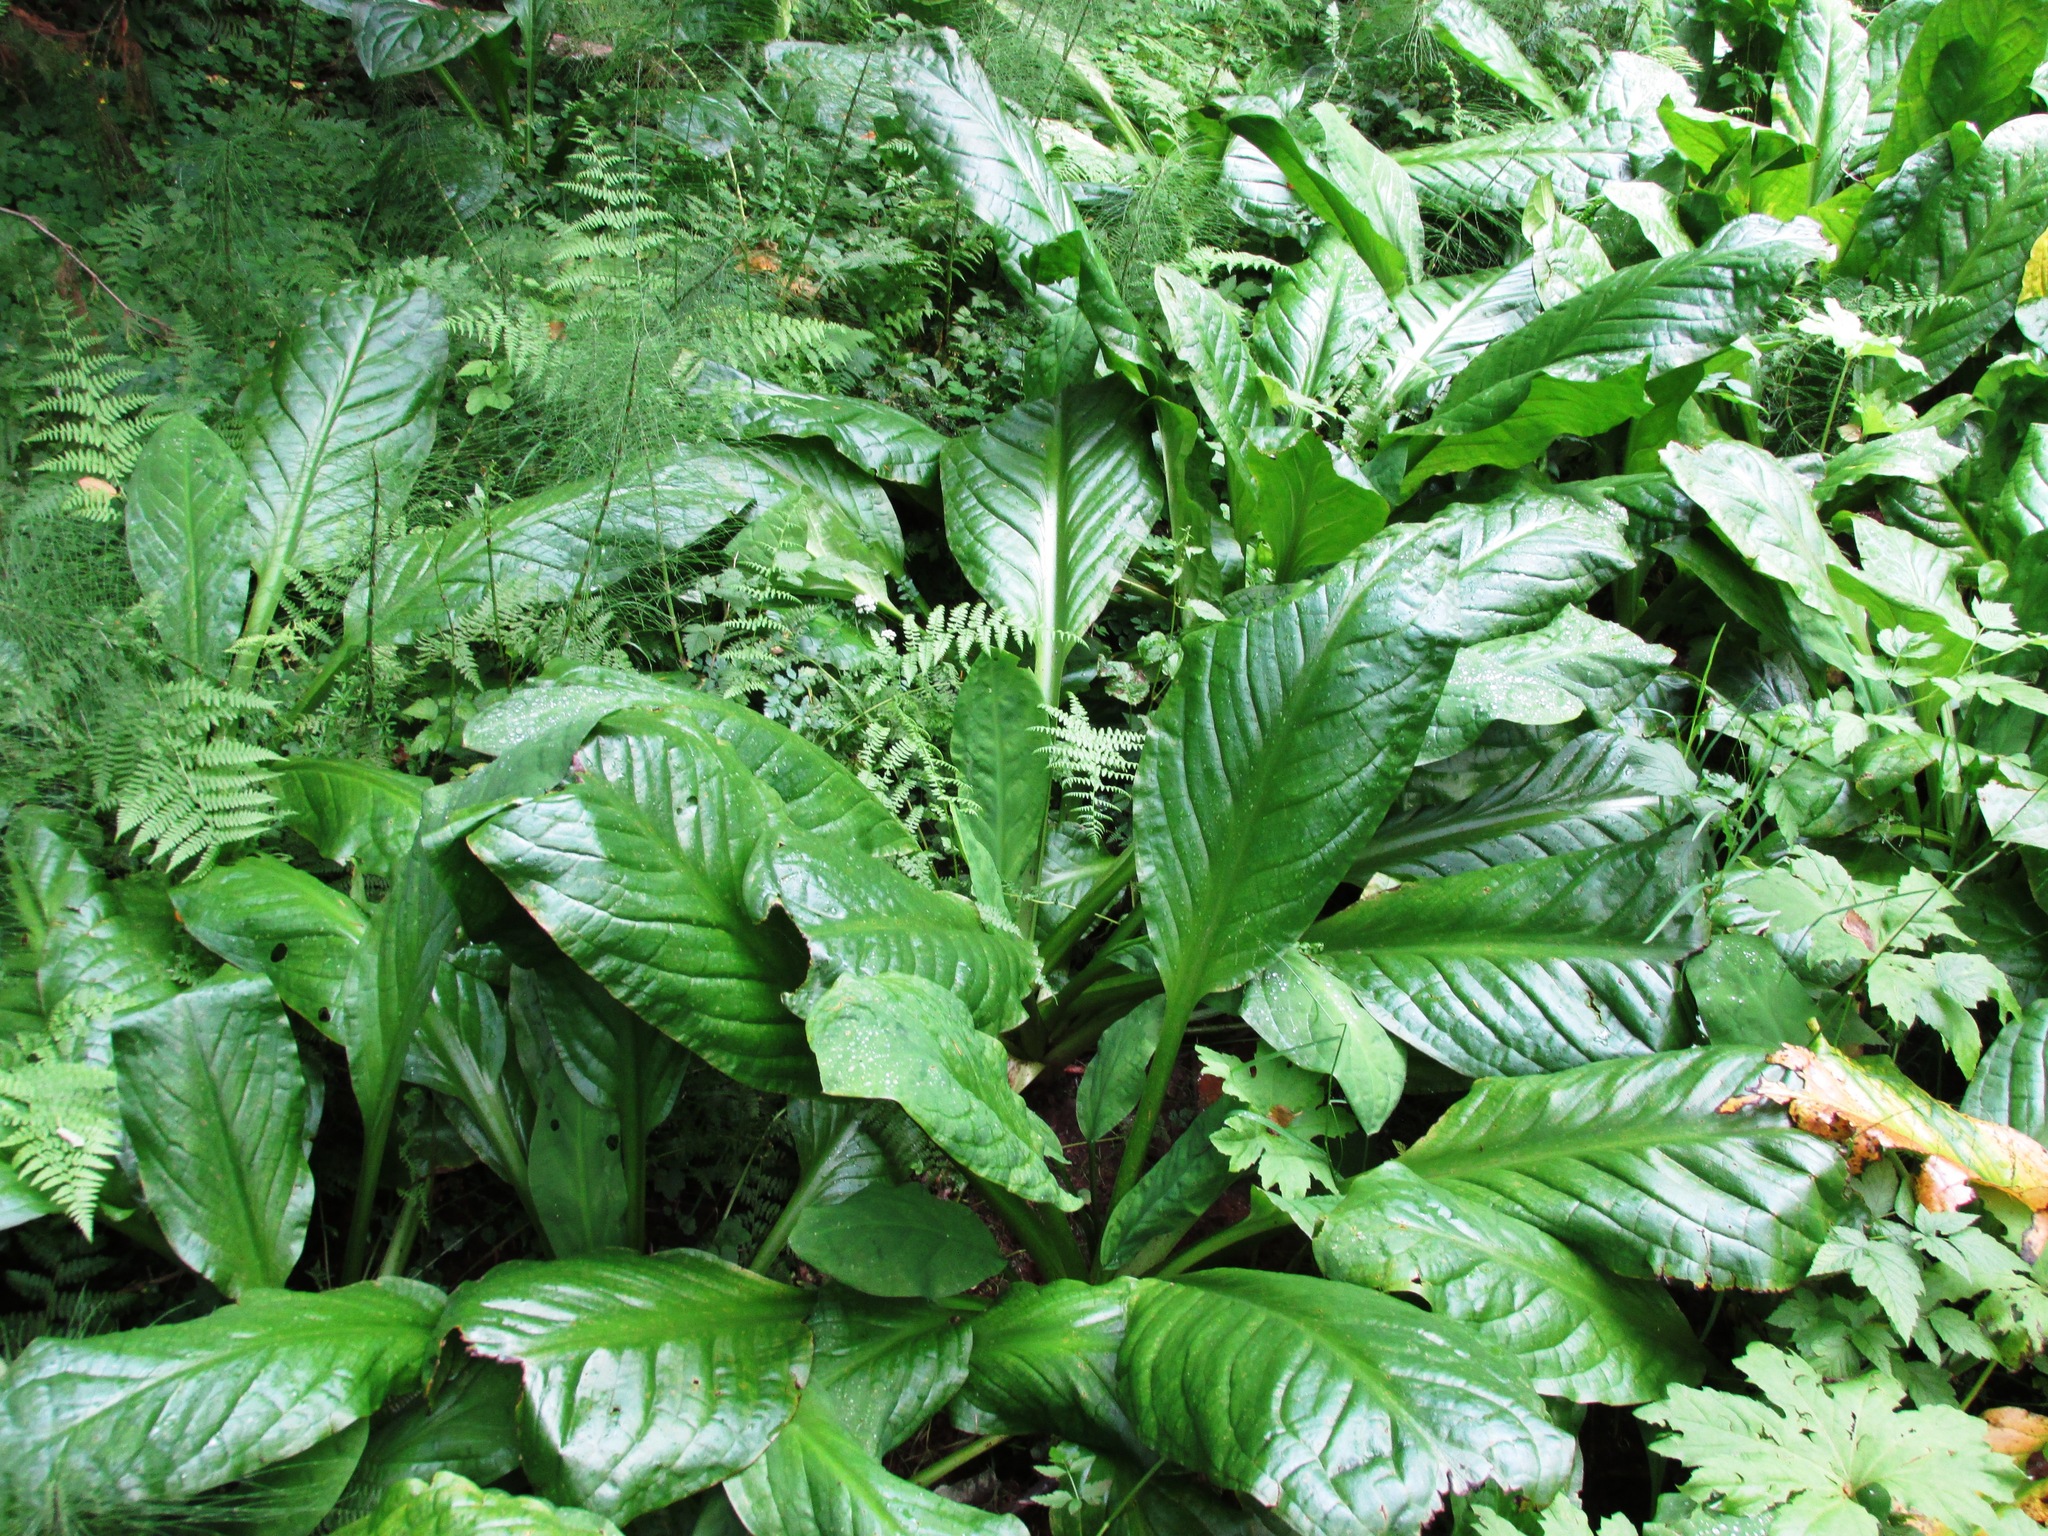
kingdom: Plantae
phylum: Tracheophyta
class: Liliopsida
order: Alismatales
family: Araceae
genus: Lysichiton
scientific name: Lysichiton americanus
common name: American skunk cabbage
